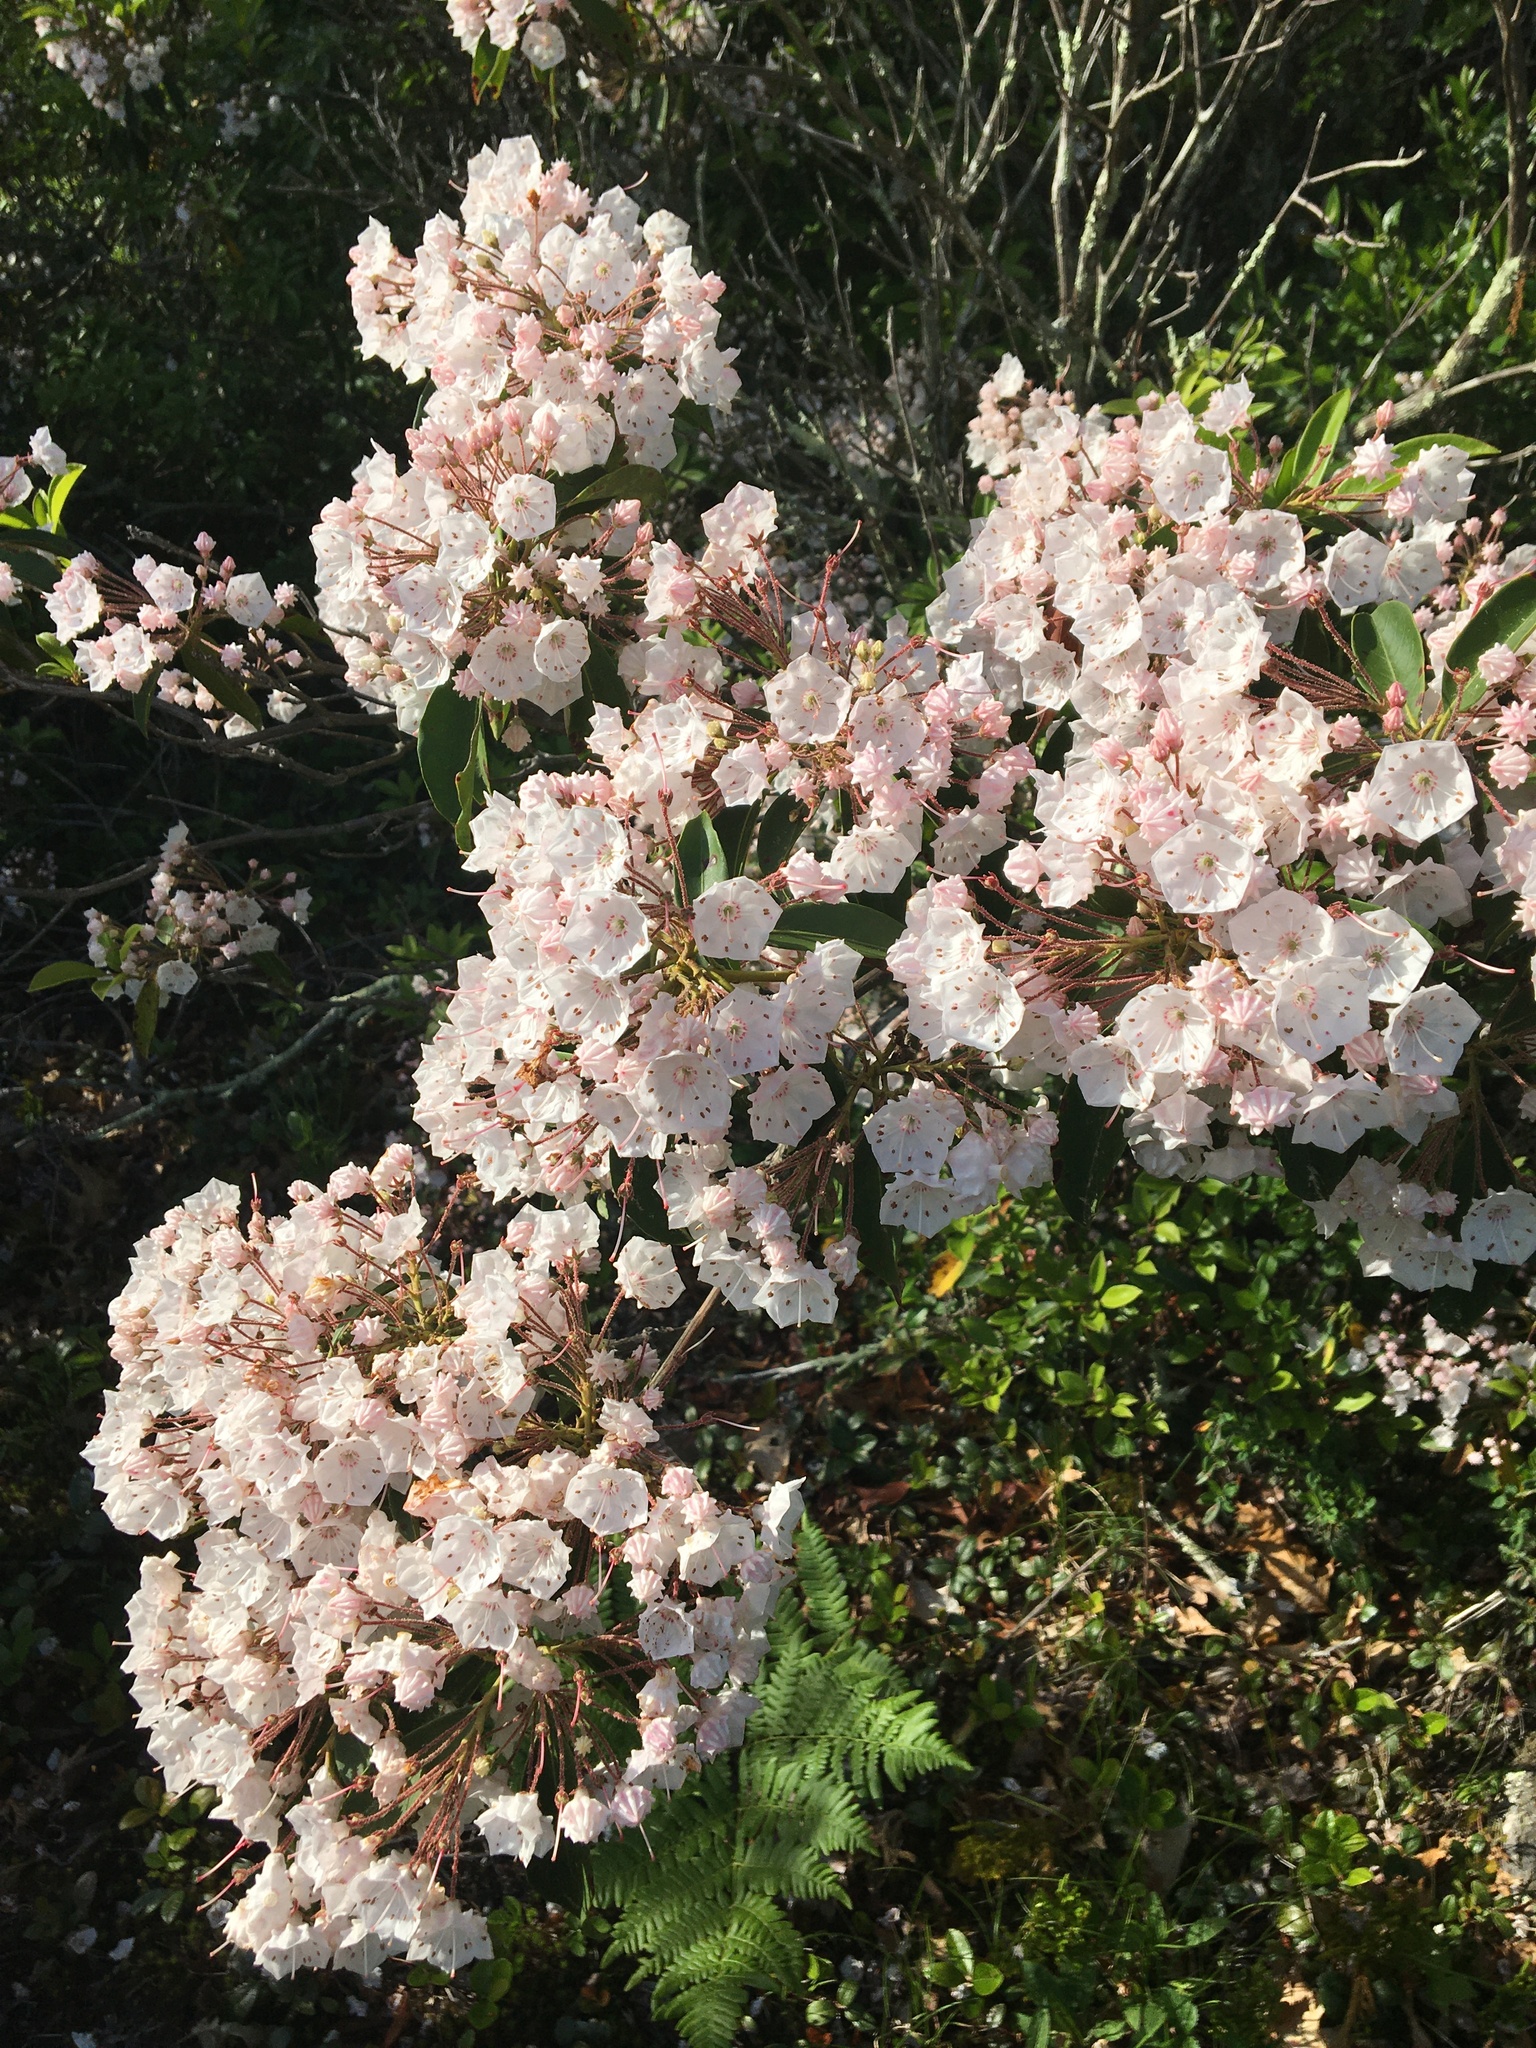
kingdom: Plantae
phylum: Tracheophyta
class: Magnoliopsida
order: Ericales
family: Ericaceae
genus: Kalmia
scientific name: Kalmia latifolia
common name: Mountain-laurel
